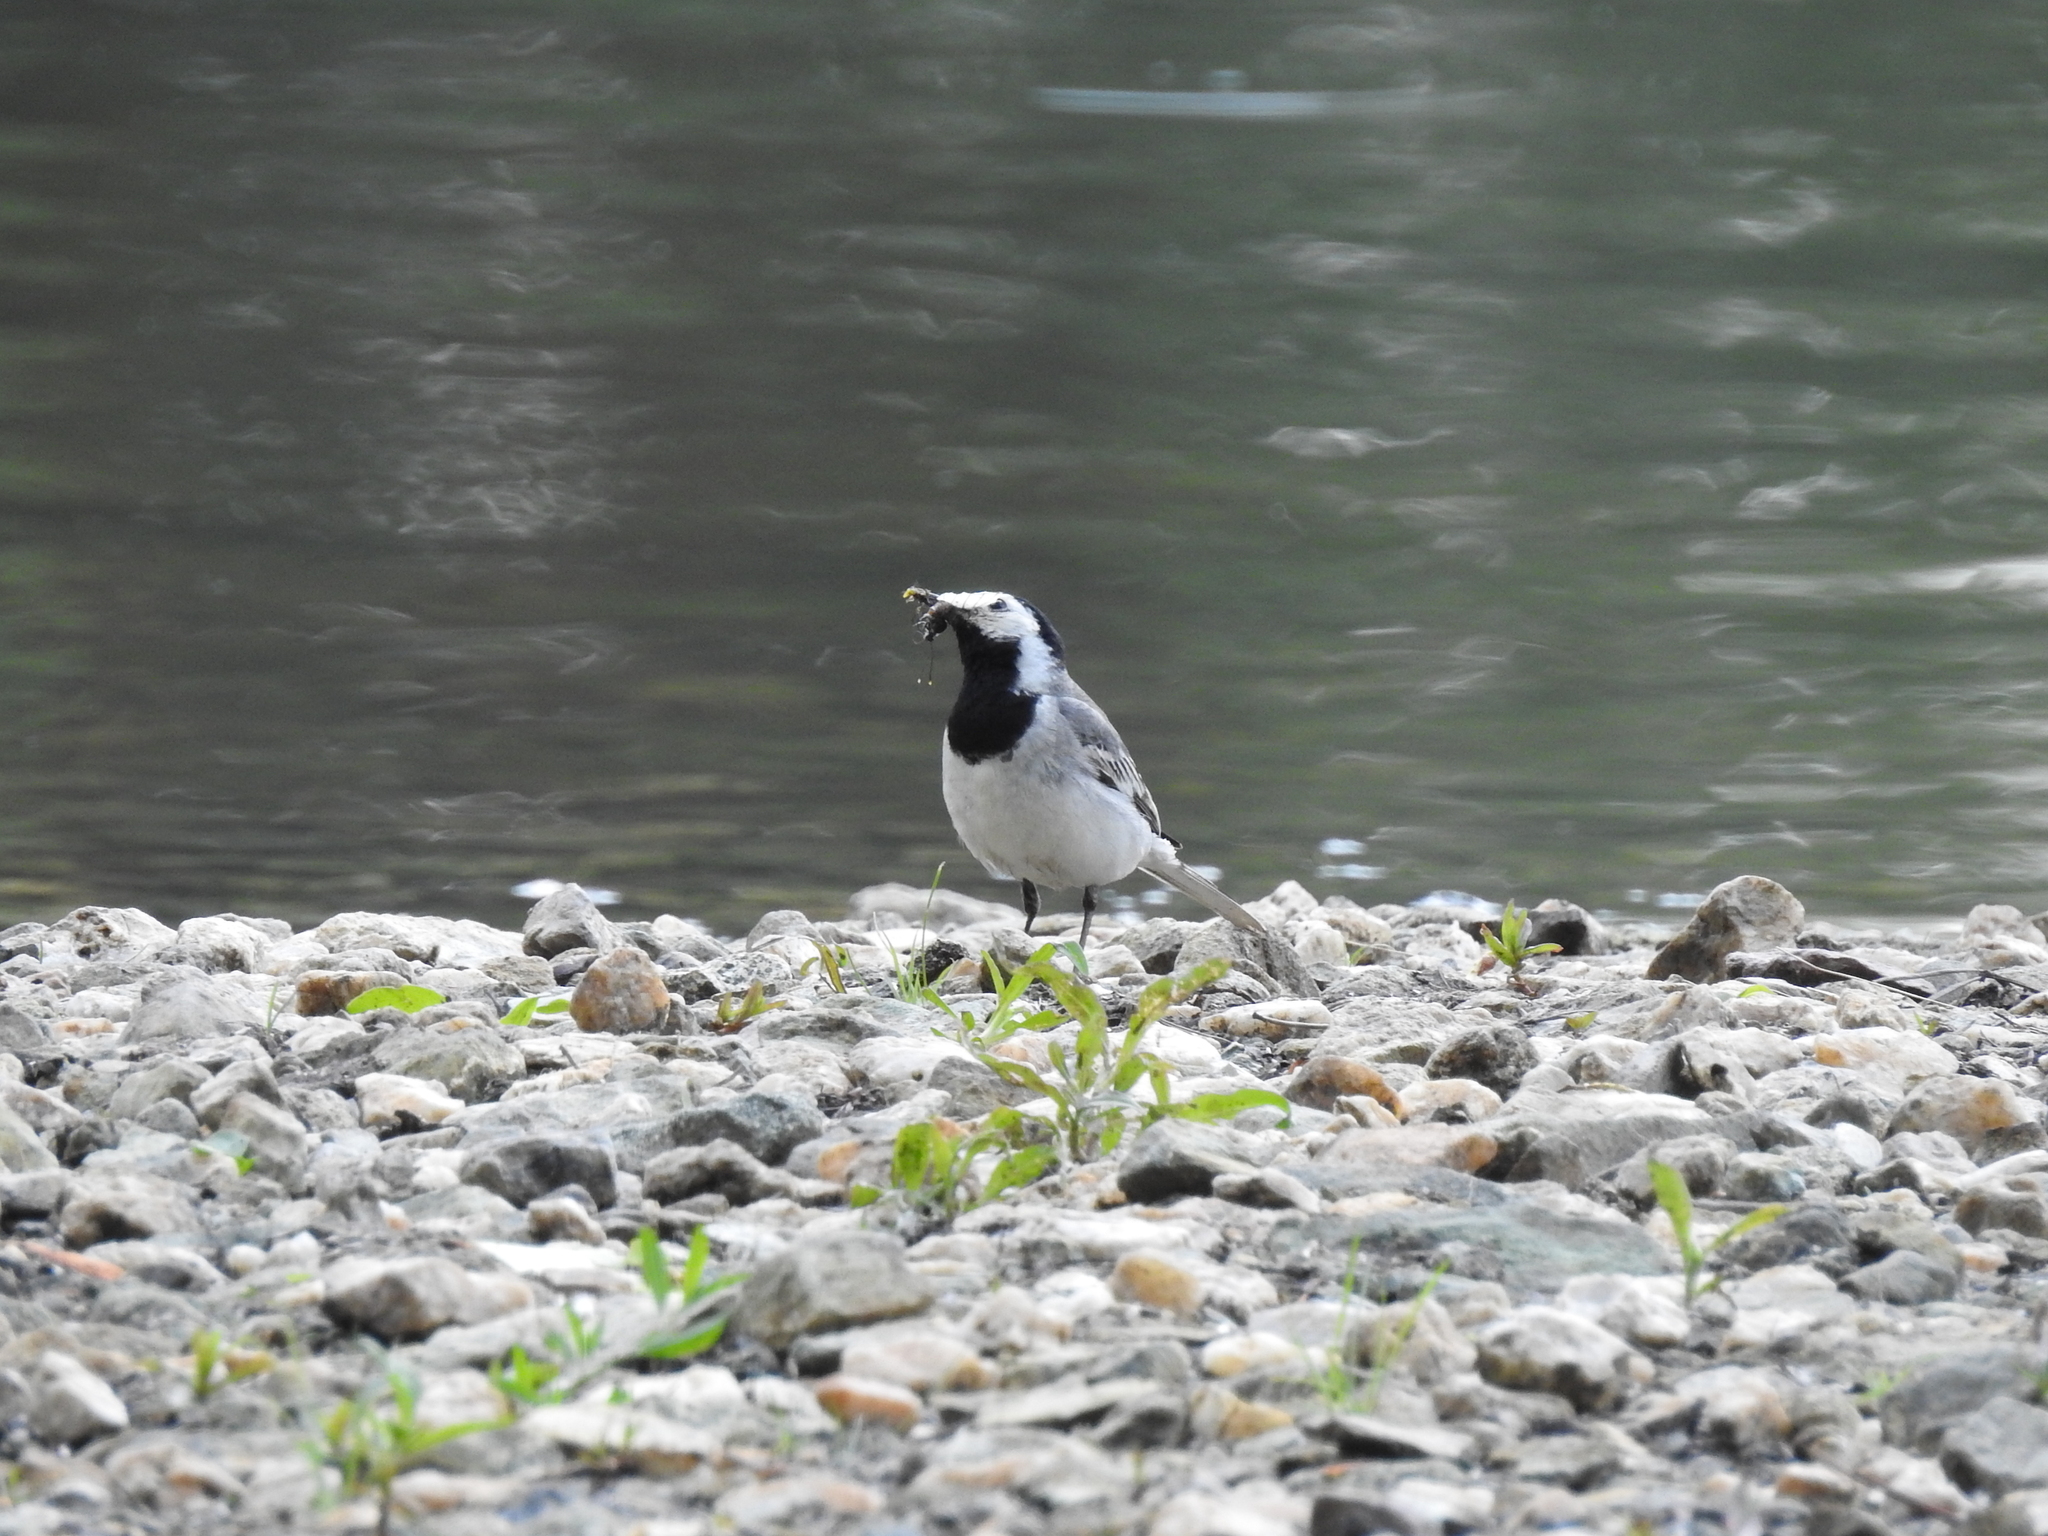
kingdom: Animalia
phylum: Chordata
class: Aves
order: Passeriformes
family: Motacillidae
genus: Motacilla
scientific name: Motacilla alba
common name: White wagtail
